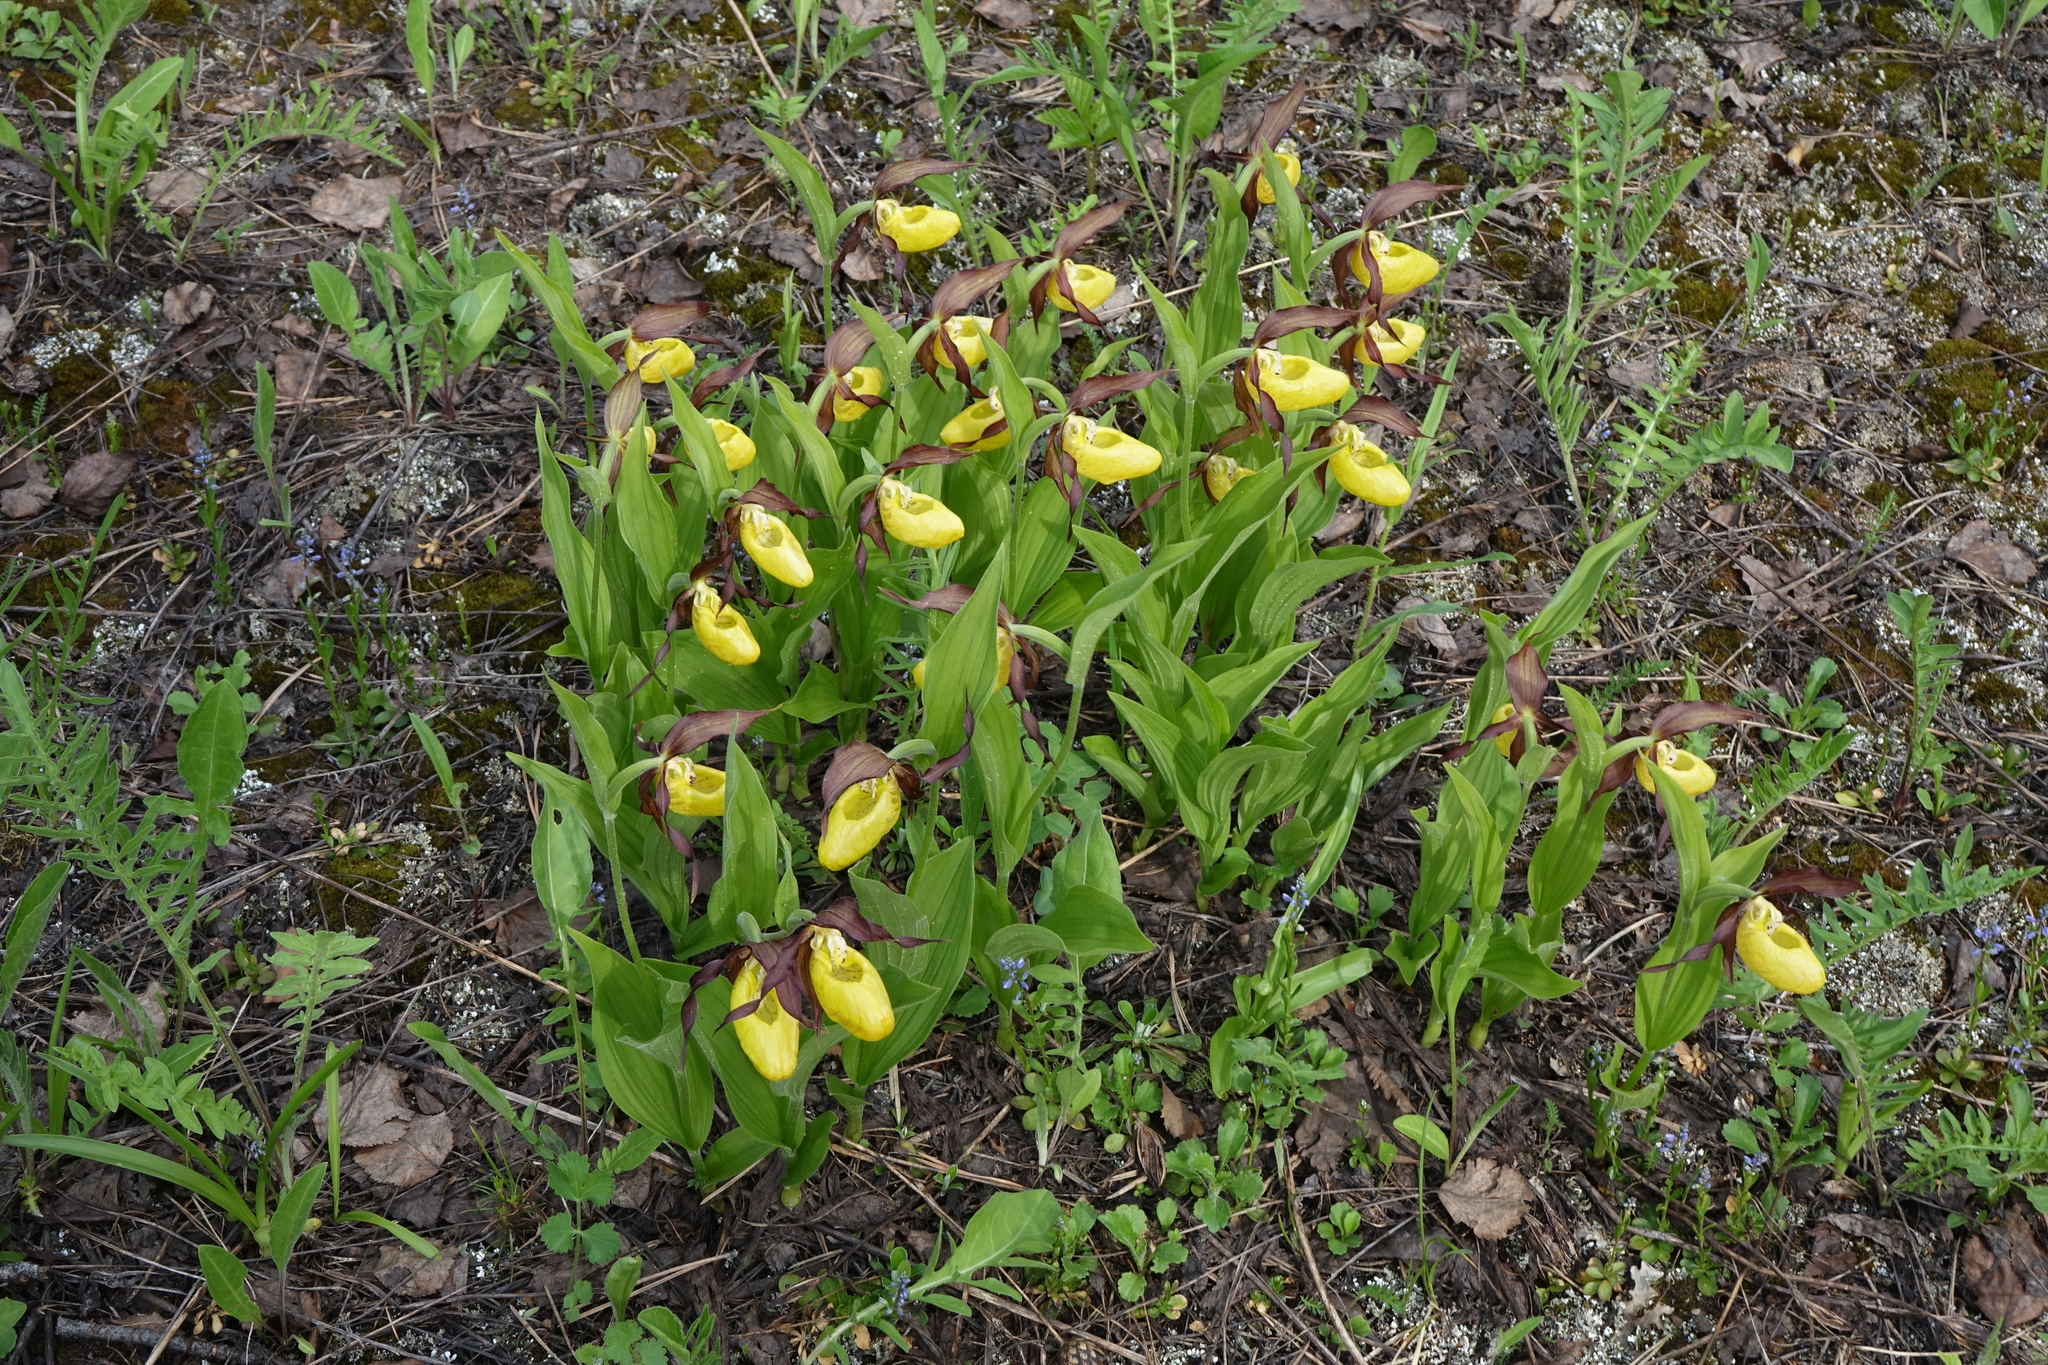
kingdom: Plantae
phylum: Tracheophyta
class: Liliopsida
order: Asparagales
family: Orchidaceae
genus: Cypripedium
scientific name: Cypripedium calceolus
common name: Lady's-slipper
